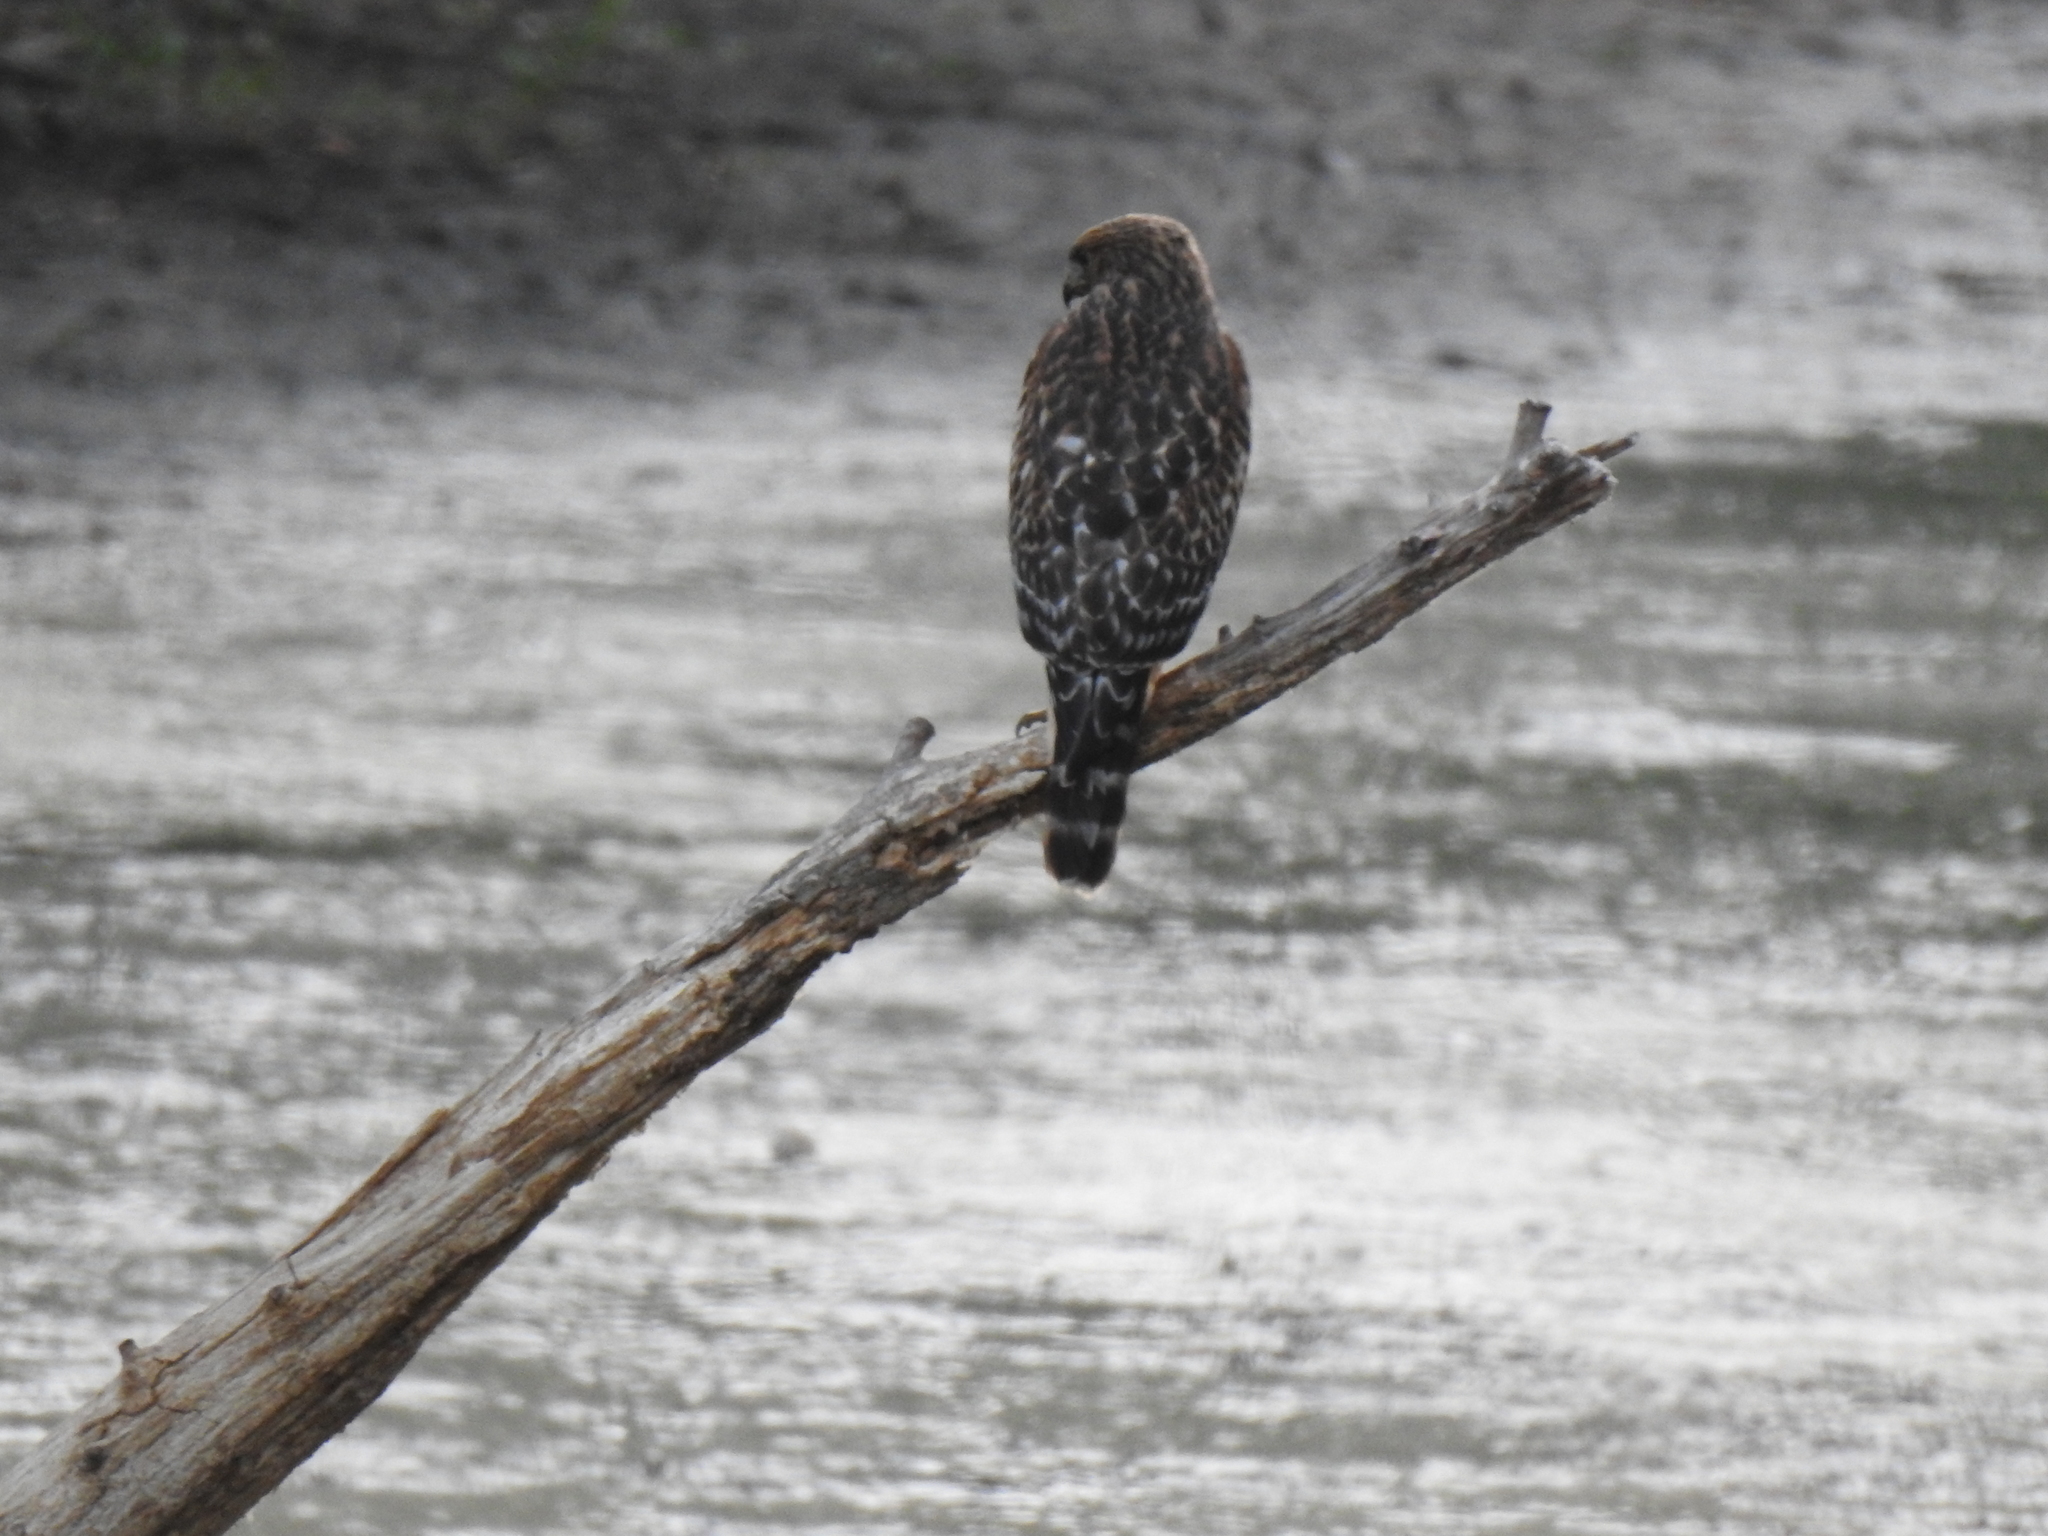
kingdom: Animalia
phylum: Chordata
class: Aves
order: Accipitriformes
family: Accipitridae
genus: Buteo
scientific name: Buteo lineatus
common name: Red-shouldered hawk
